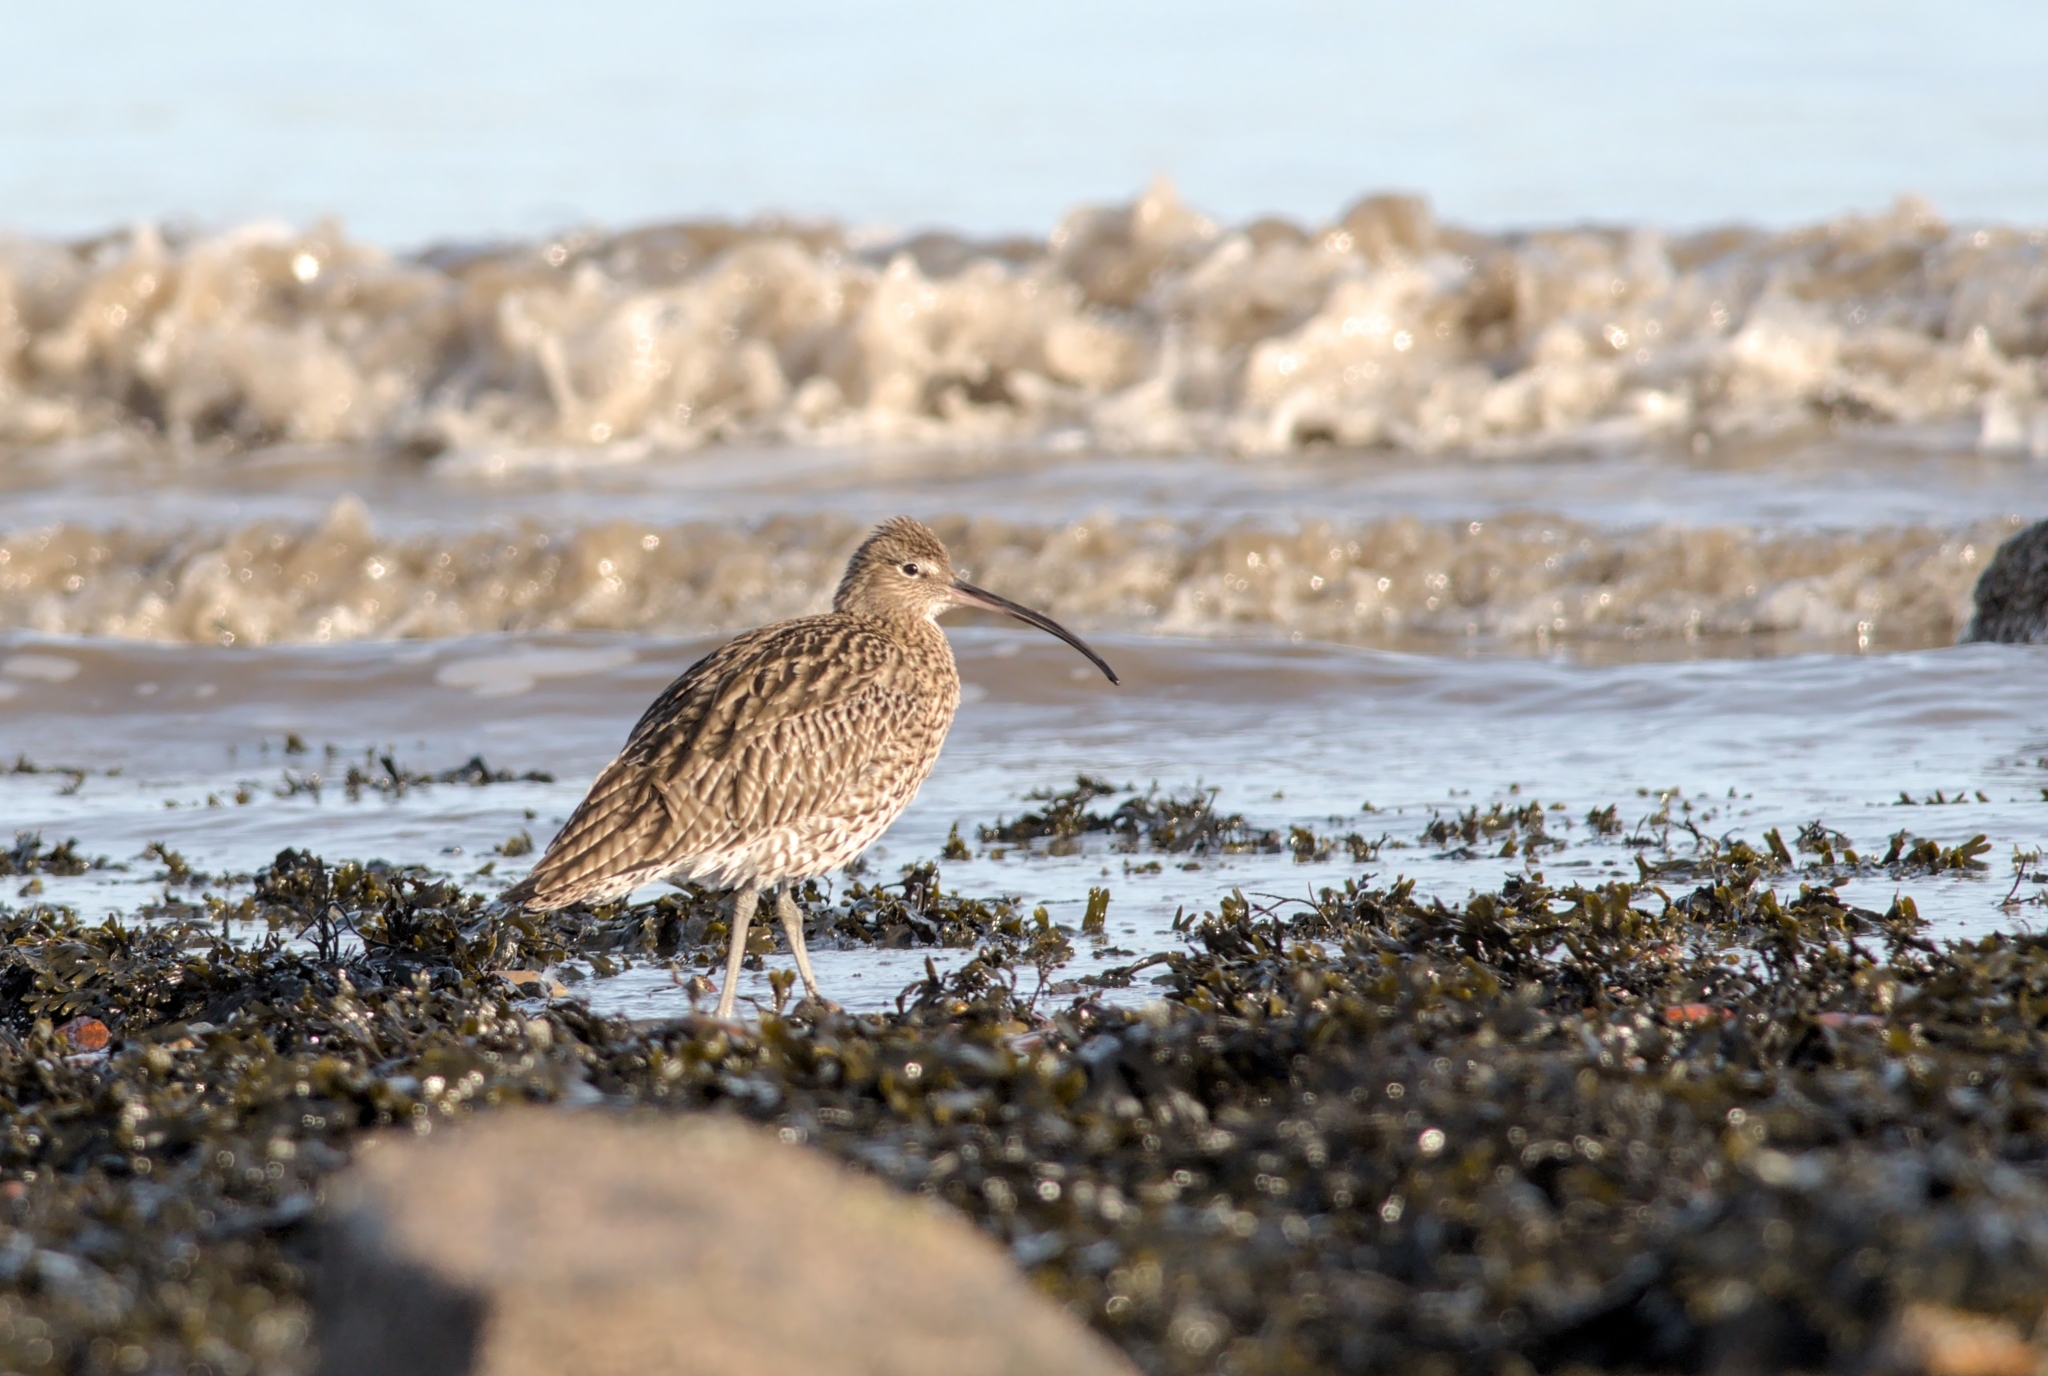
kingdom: Animalia
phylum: Chordata
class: Aves
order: Charadriiformes
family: Scolopacidae
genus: Numenius
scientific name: Numenius arquata
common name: Eurasian curlew
